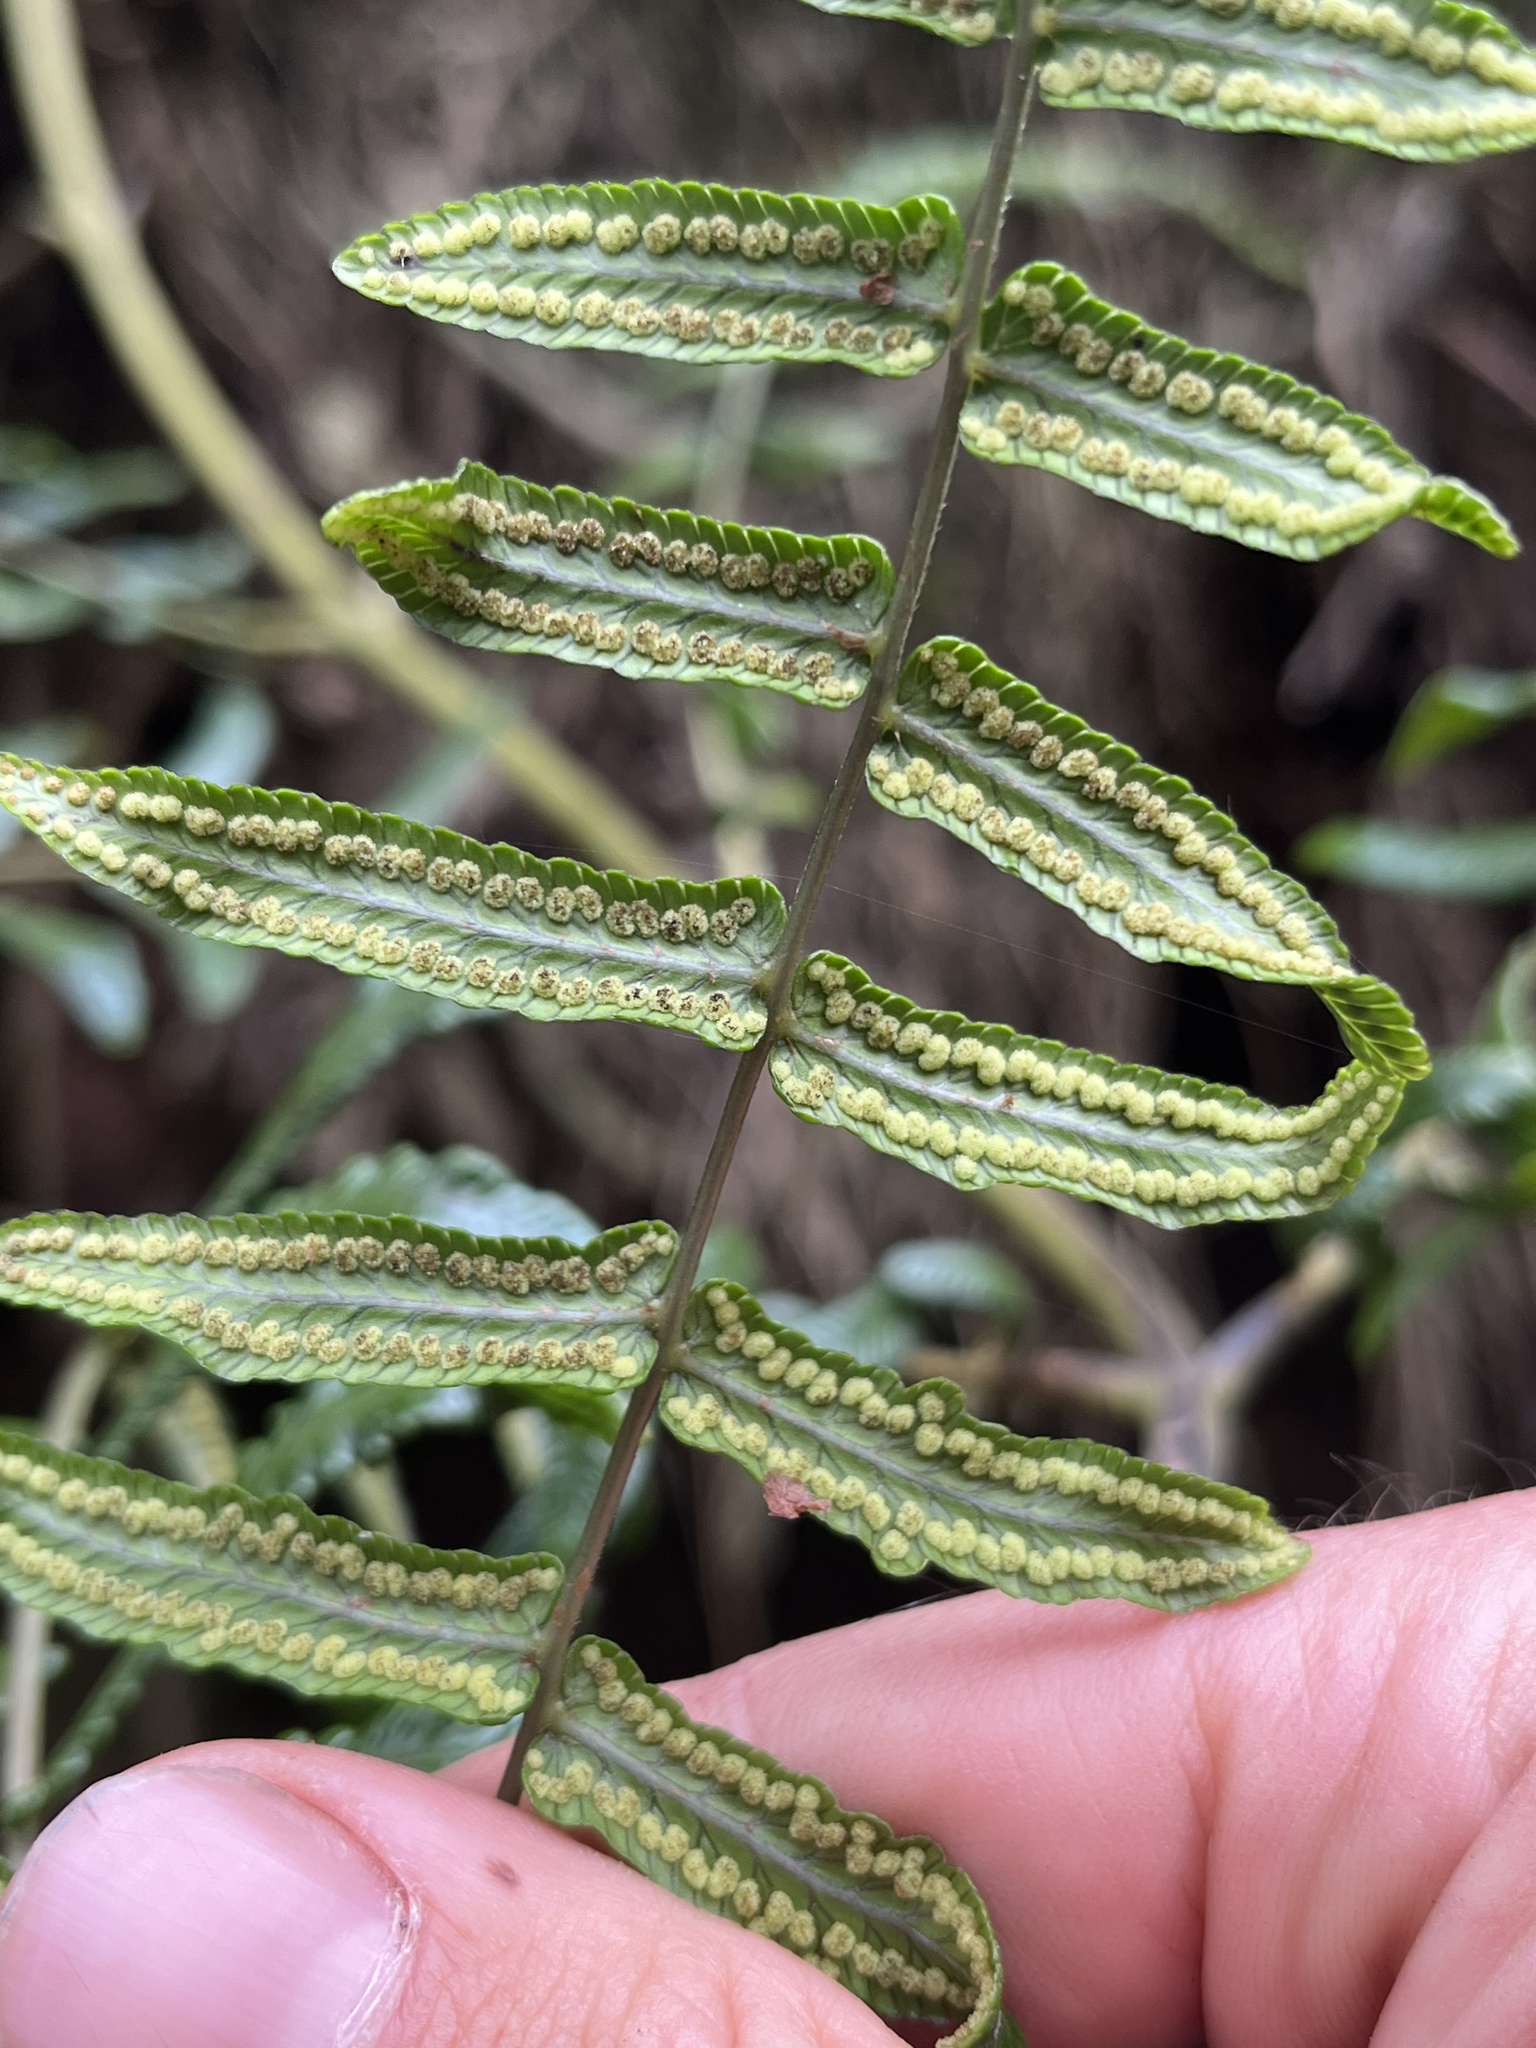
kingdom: Plantae
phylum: Tracheophyta
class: Polypodiopsida
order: Polypodiales
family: Thelypteridaceae
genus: Amauropelta
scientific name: Amauropelta pteroidea
